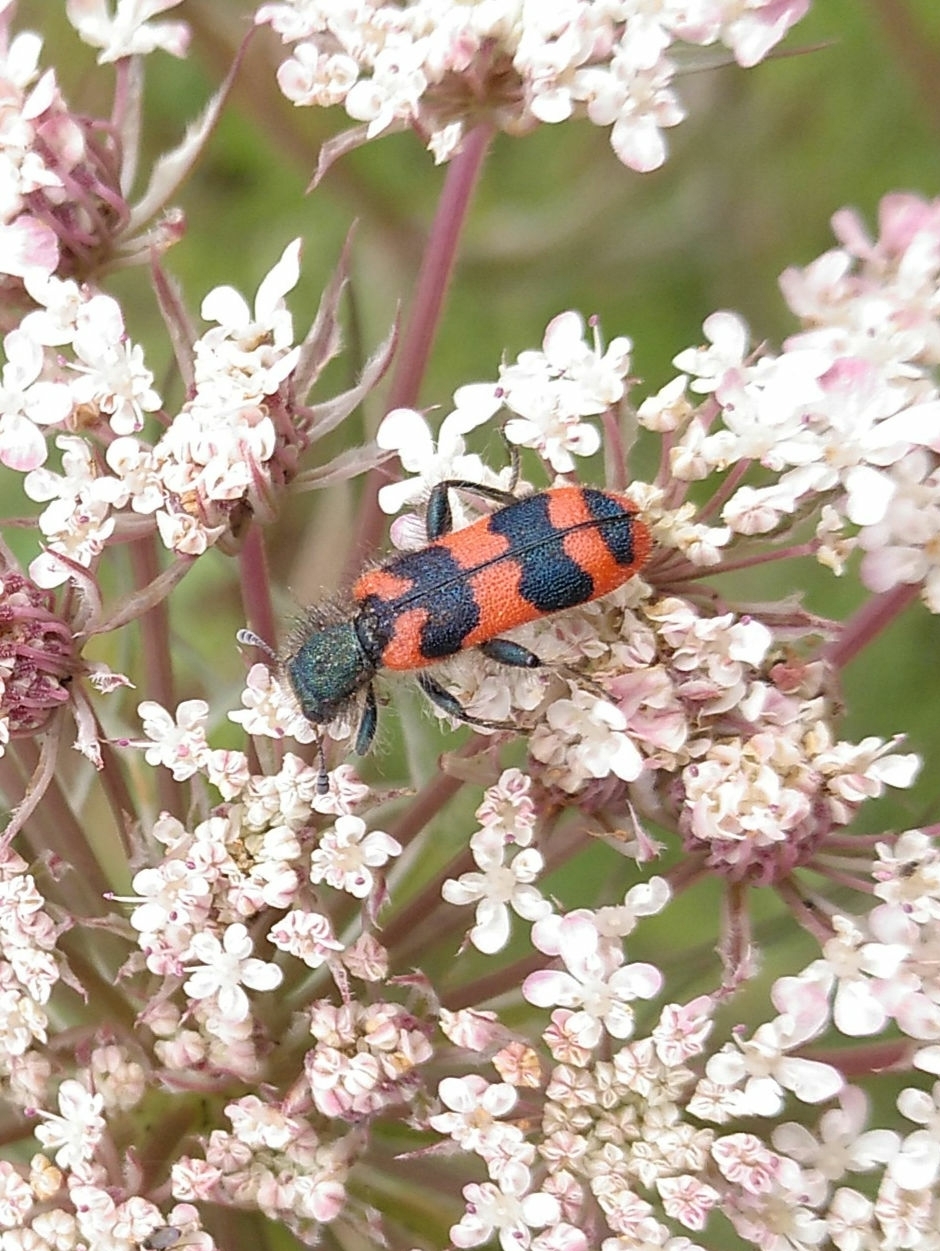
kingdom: Animalia
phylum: Arthropoda
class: Insecta
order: Coleoptera
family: Cleridae
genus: Trichodes
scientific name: Trichodes alvearius
